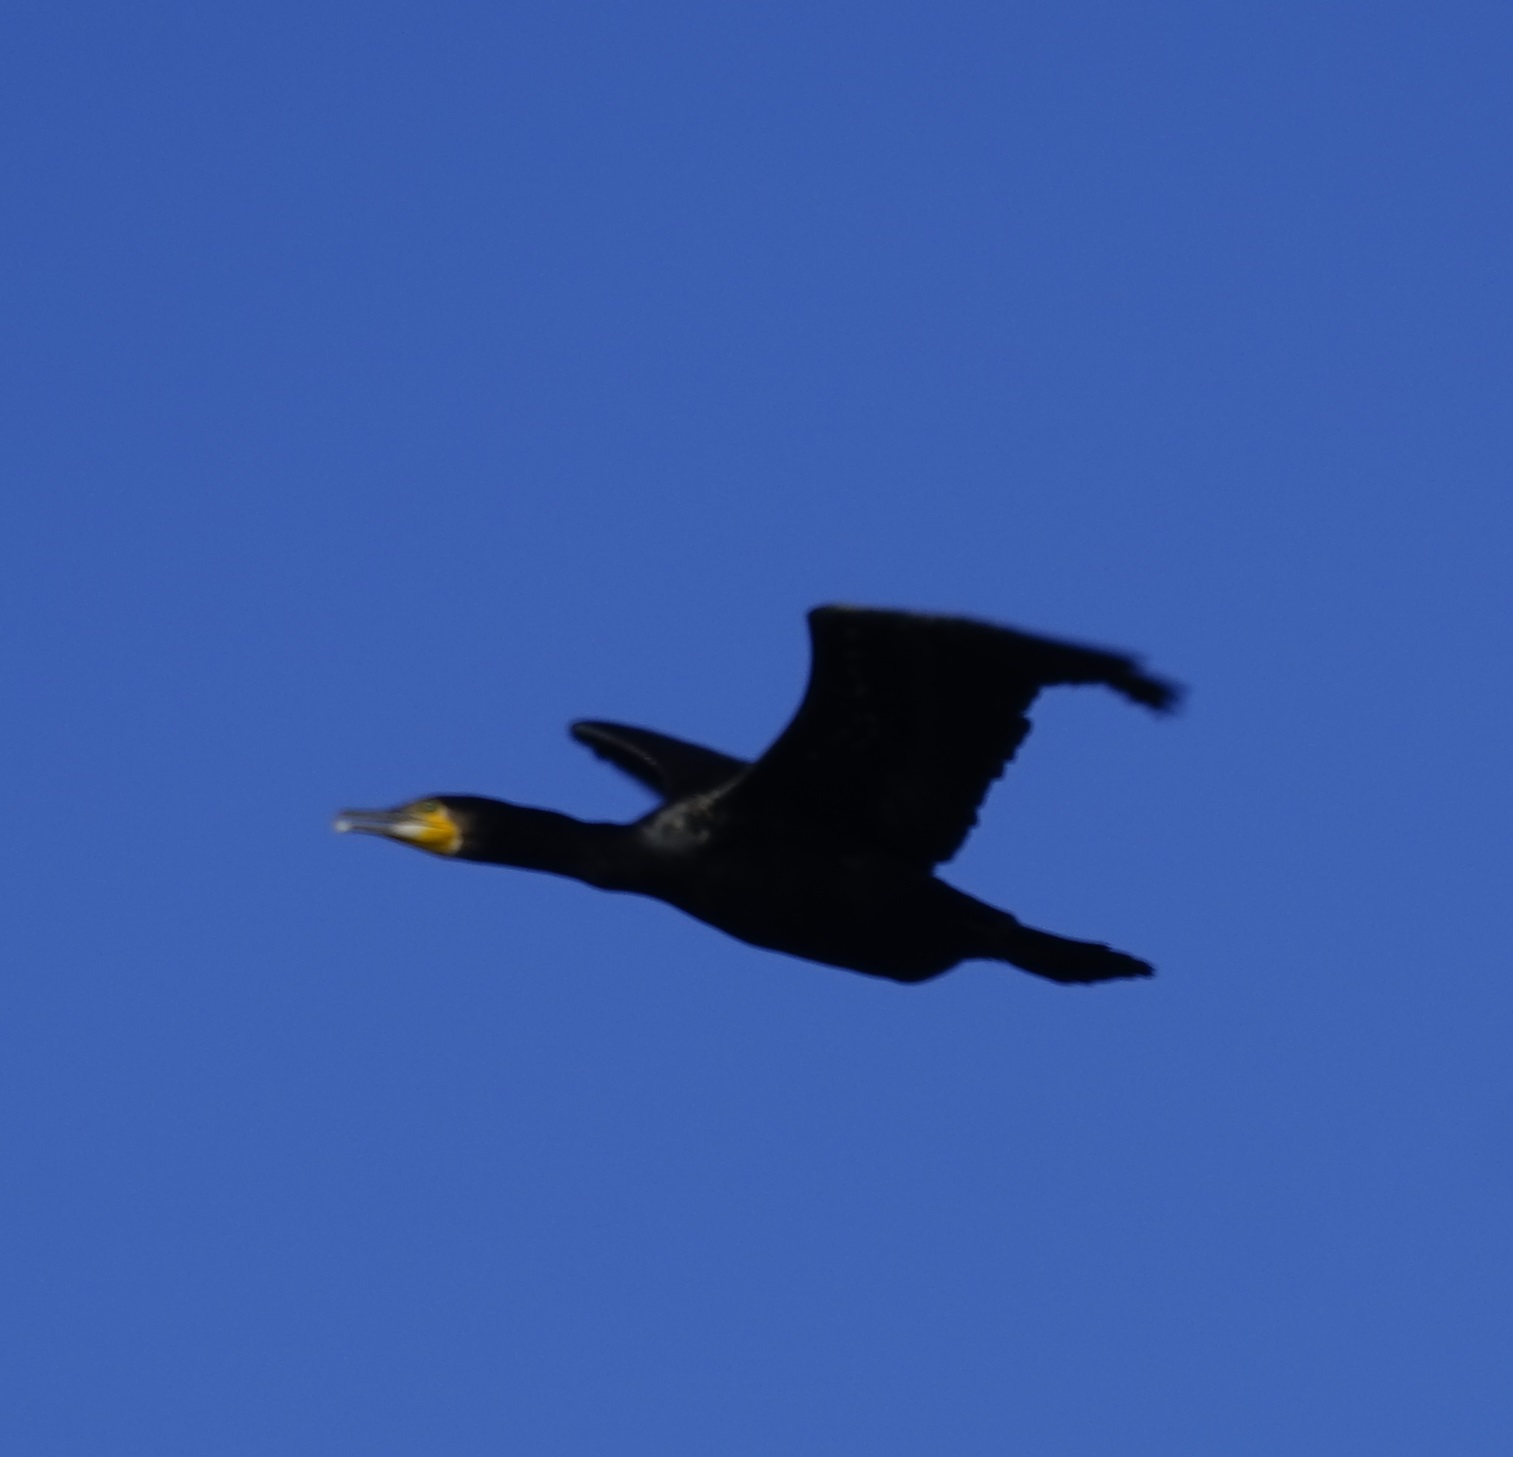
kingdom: Animalia
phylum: Chordata
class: Aves
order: Suliformes
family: Phalacrocoracidae
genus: Phalacrocorax
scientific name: Phalacrocorax carbo
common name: Great cormorant
